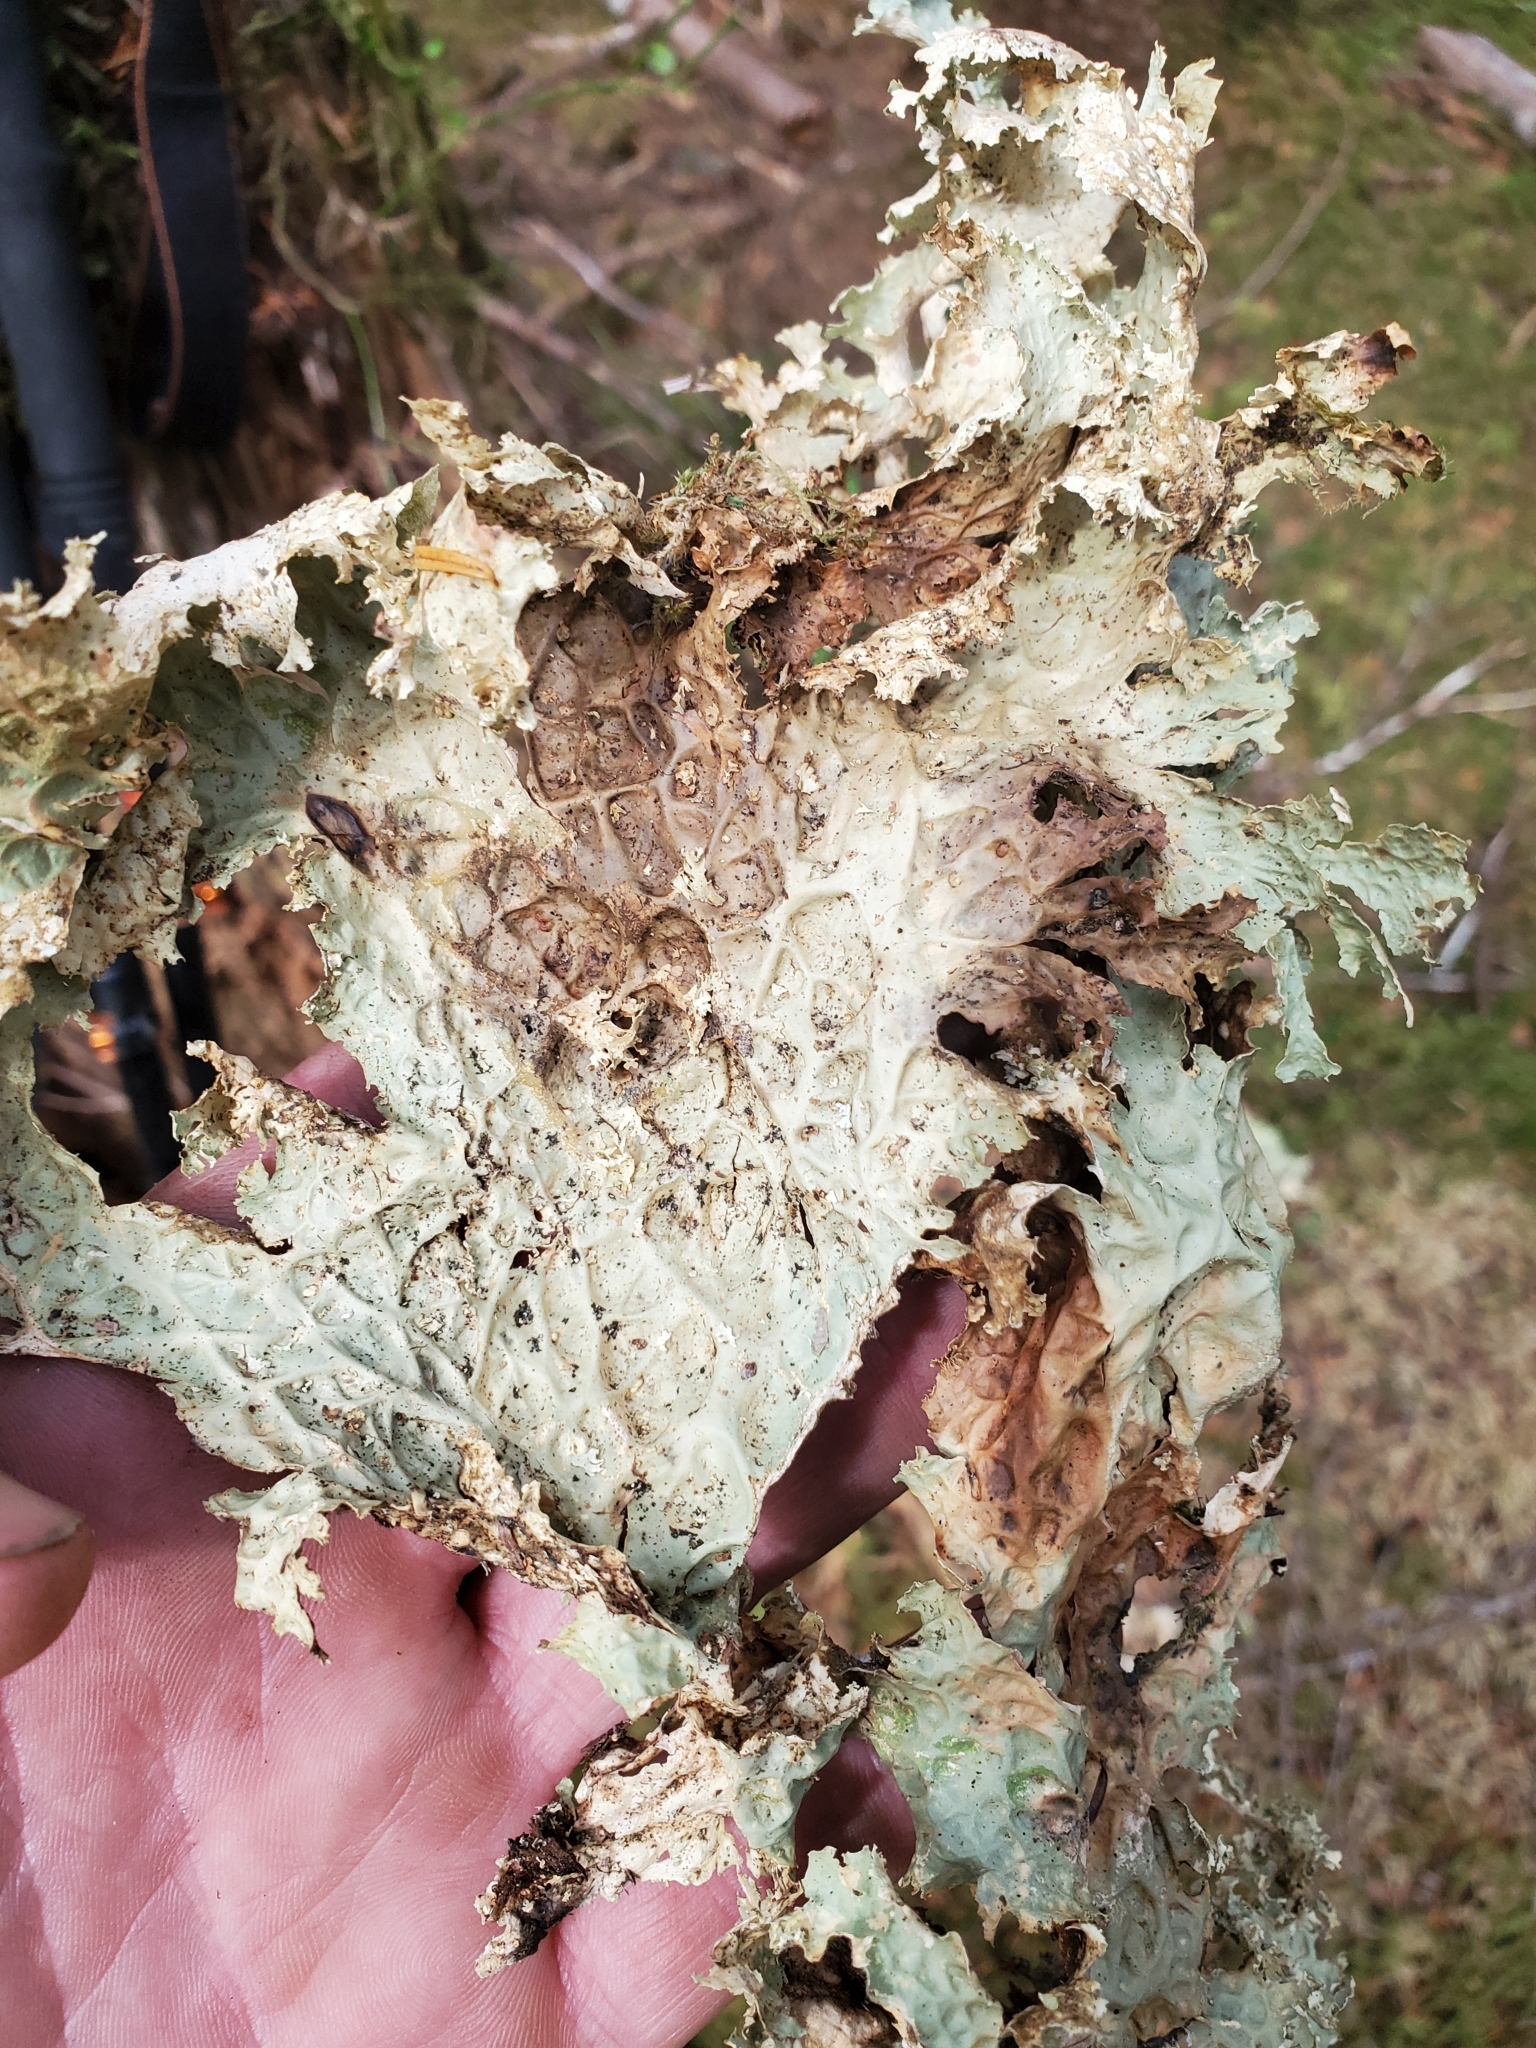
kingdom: Fungi
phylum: Ascomycota
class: Lecanoromycetes
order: Peltigerales
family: Lobariaceae
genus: Lobaria
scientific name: Lobaria oregana
